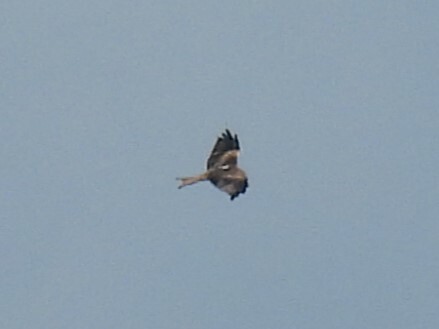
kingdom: Animalia
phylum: Chordata
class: Aves
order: Accipitriformes
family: Accipitridae
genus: Milvus
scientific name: Milvus milvus
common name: Red kite
